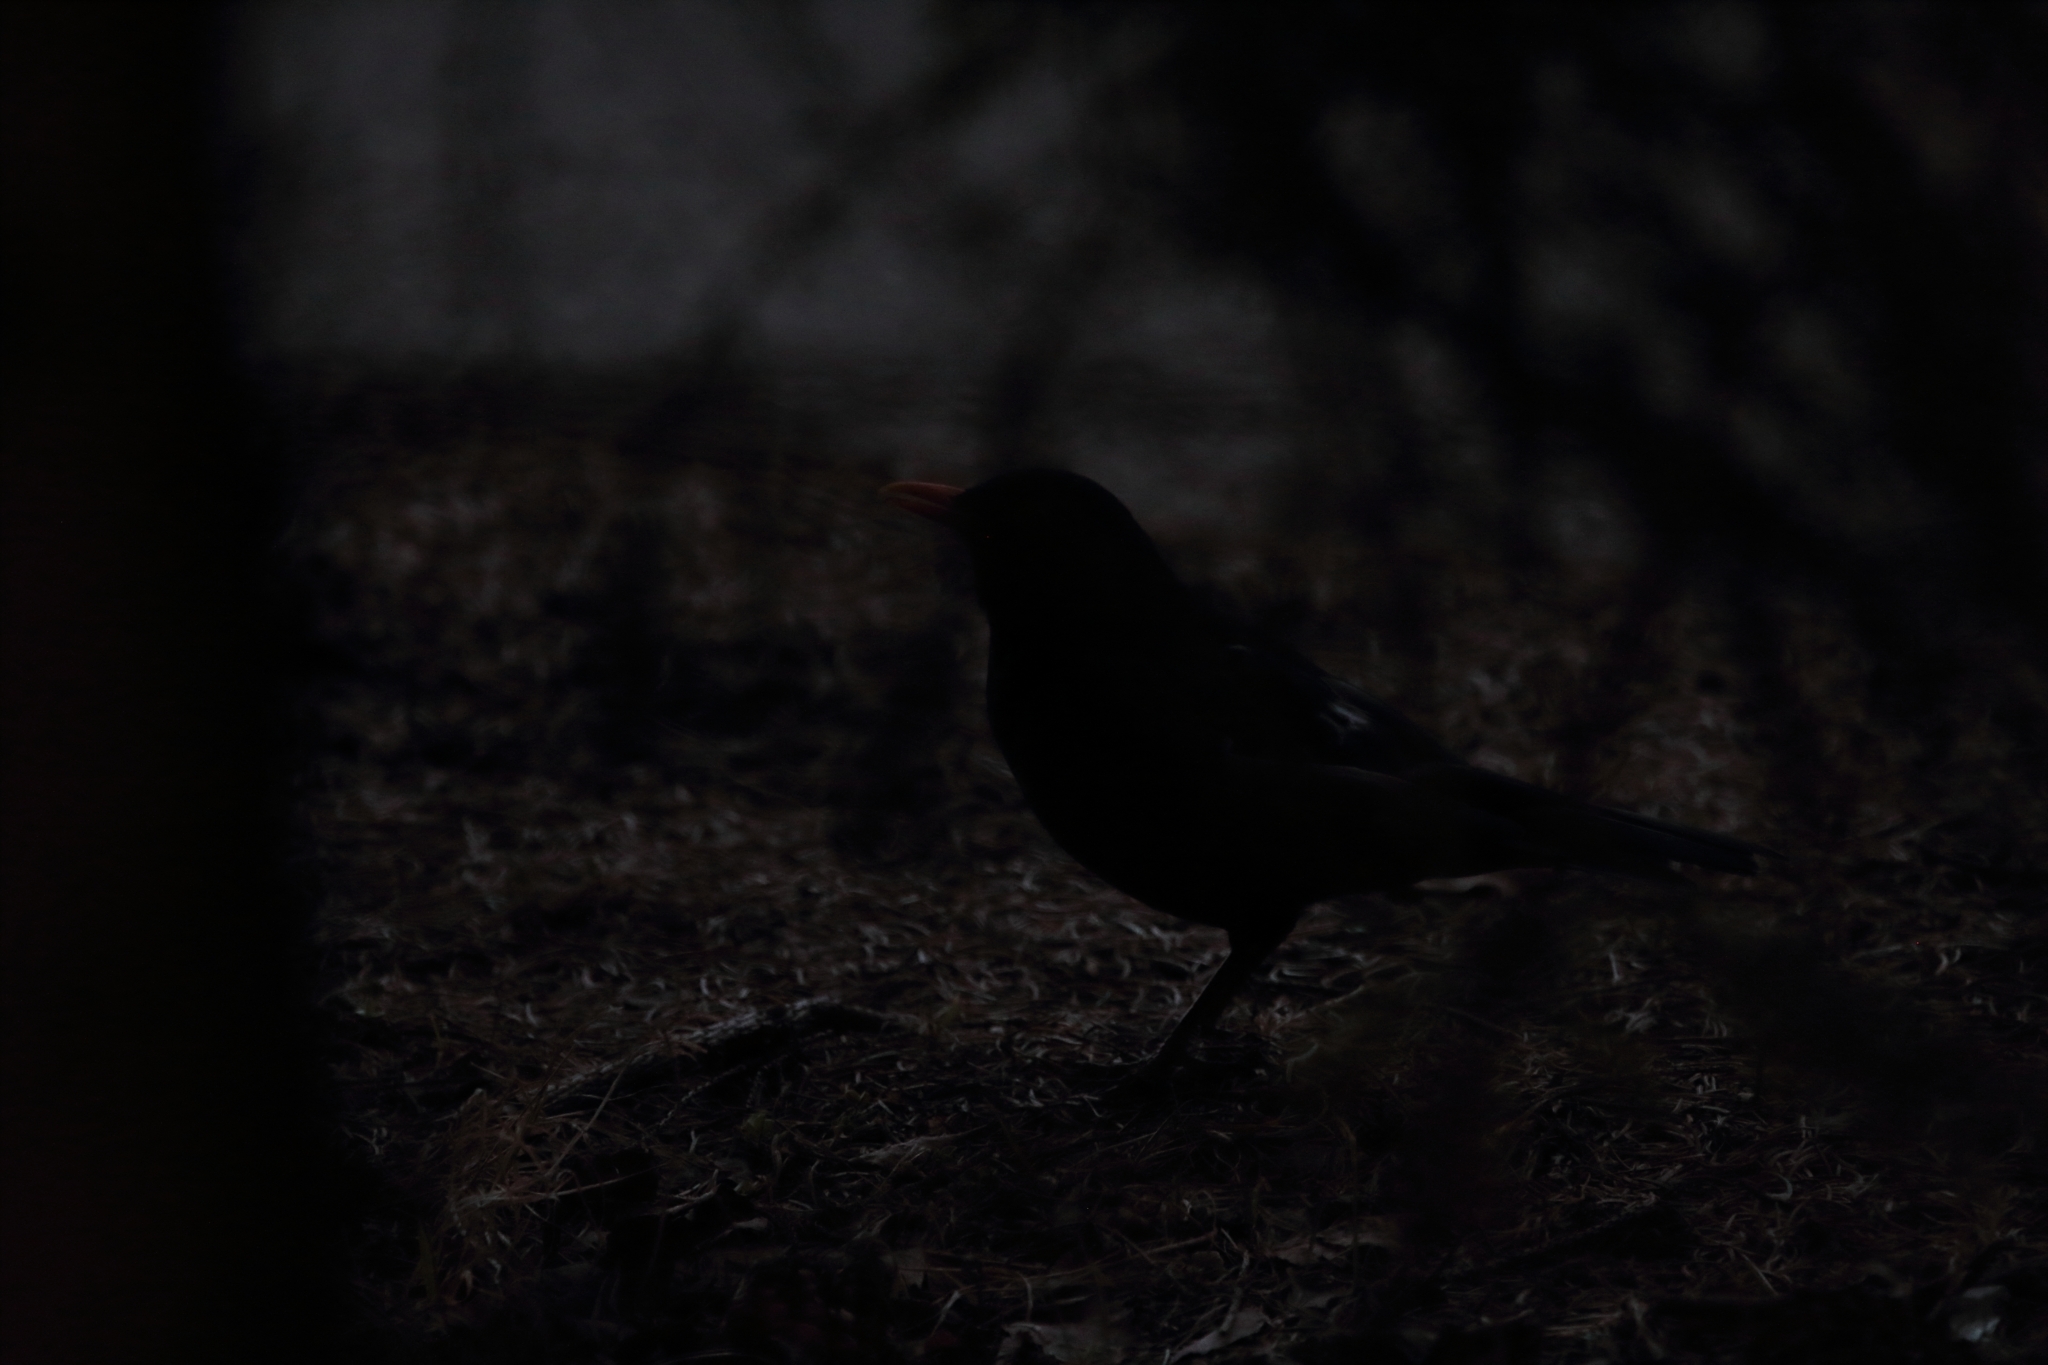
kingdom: Animalia
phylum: Chordata
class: Aves
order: Passeriformes
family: Turdidae
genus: Turdus
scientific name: Turdus merula
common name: Common blackbird
